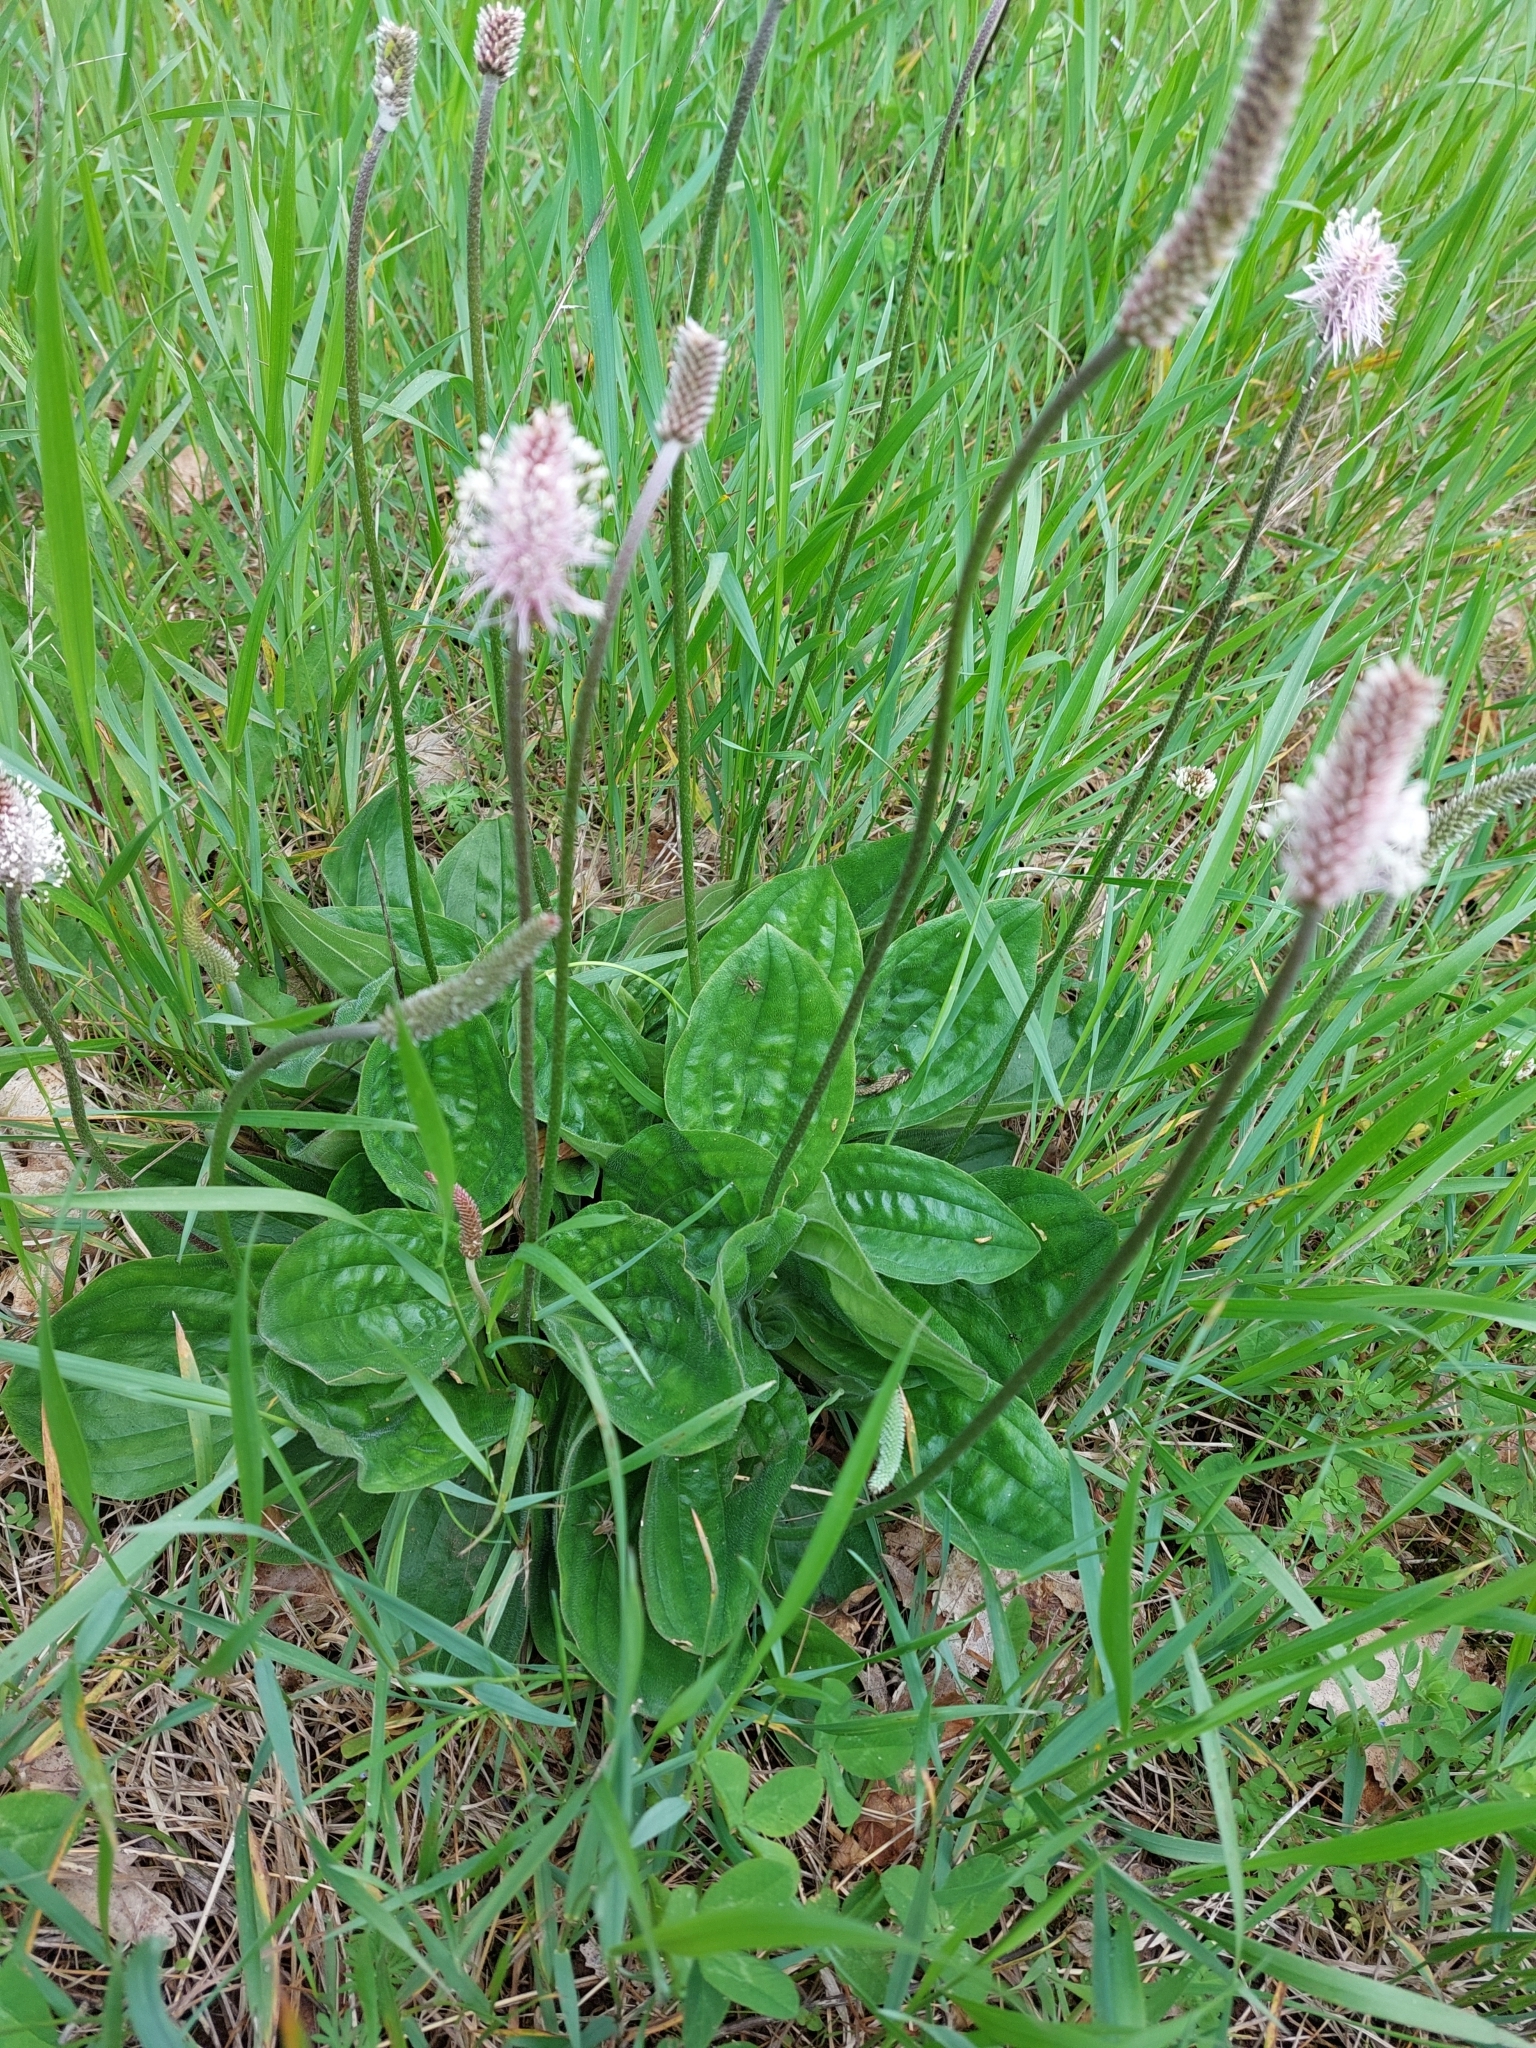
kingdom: Plantae
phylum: Tracheophyta
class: Magnoliopsida
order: Lamiales
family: Plantaginaceae
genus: Plantago
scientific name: Plantago media
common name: Hoary plantain
